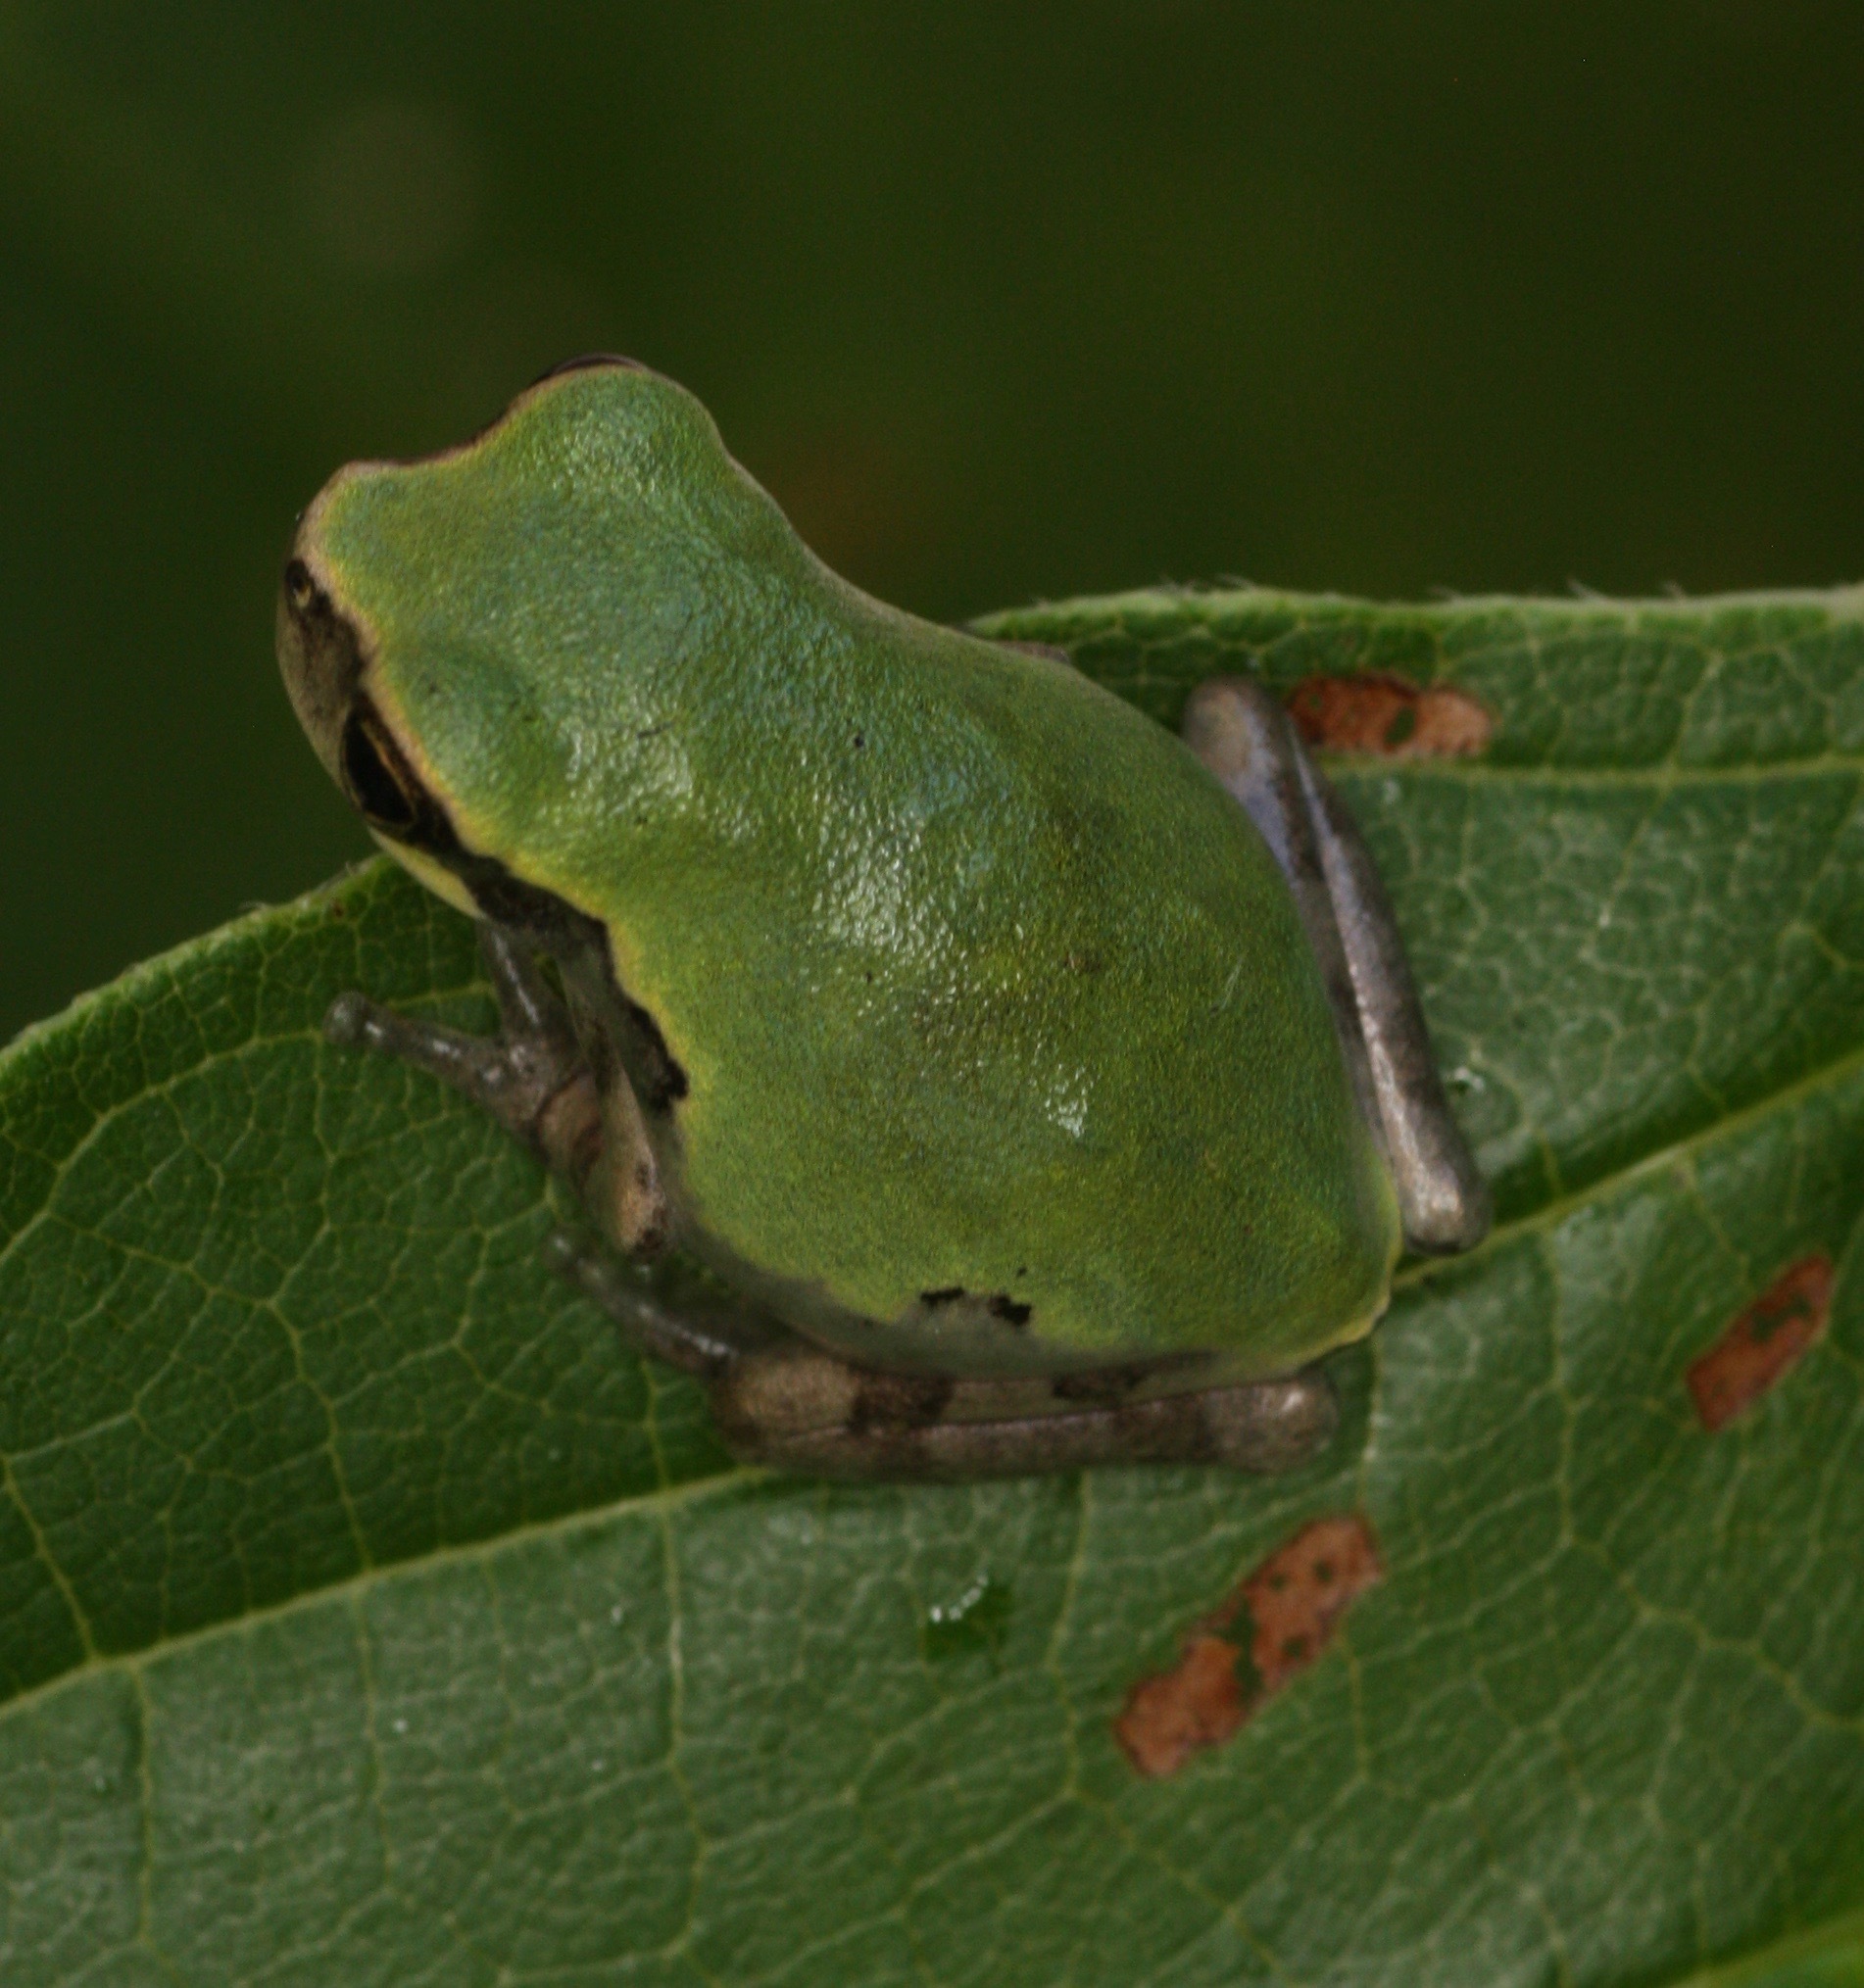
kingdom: Animalia
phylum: Chordata
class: Amphibia
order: Anura
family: Hylidae
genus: Dryophytes
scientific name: Dryophytes avivoca
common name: Bird-voiced treefrog
